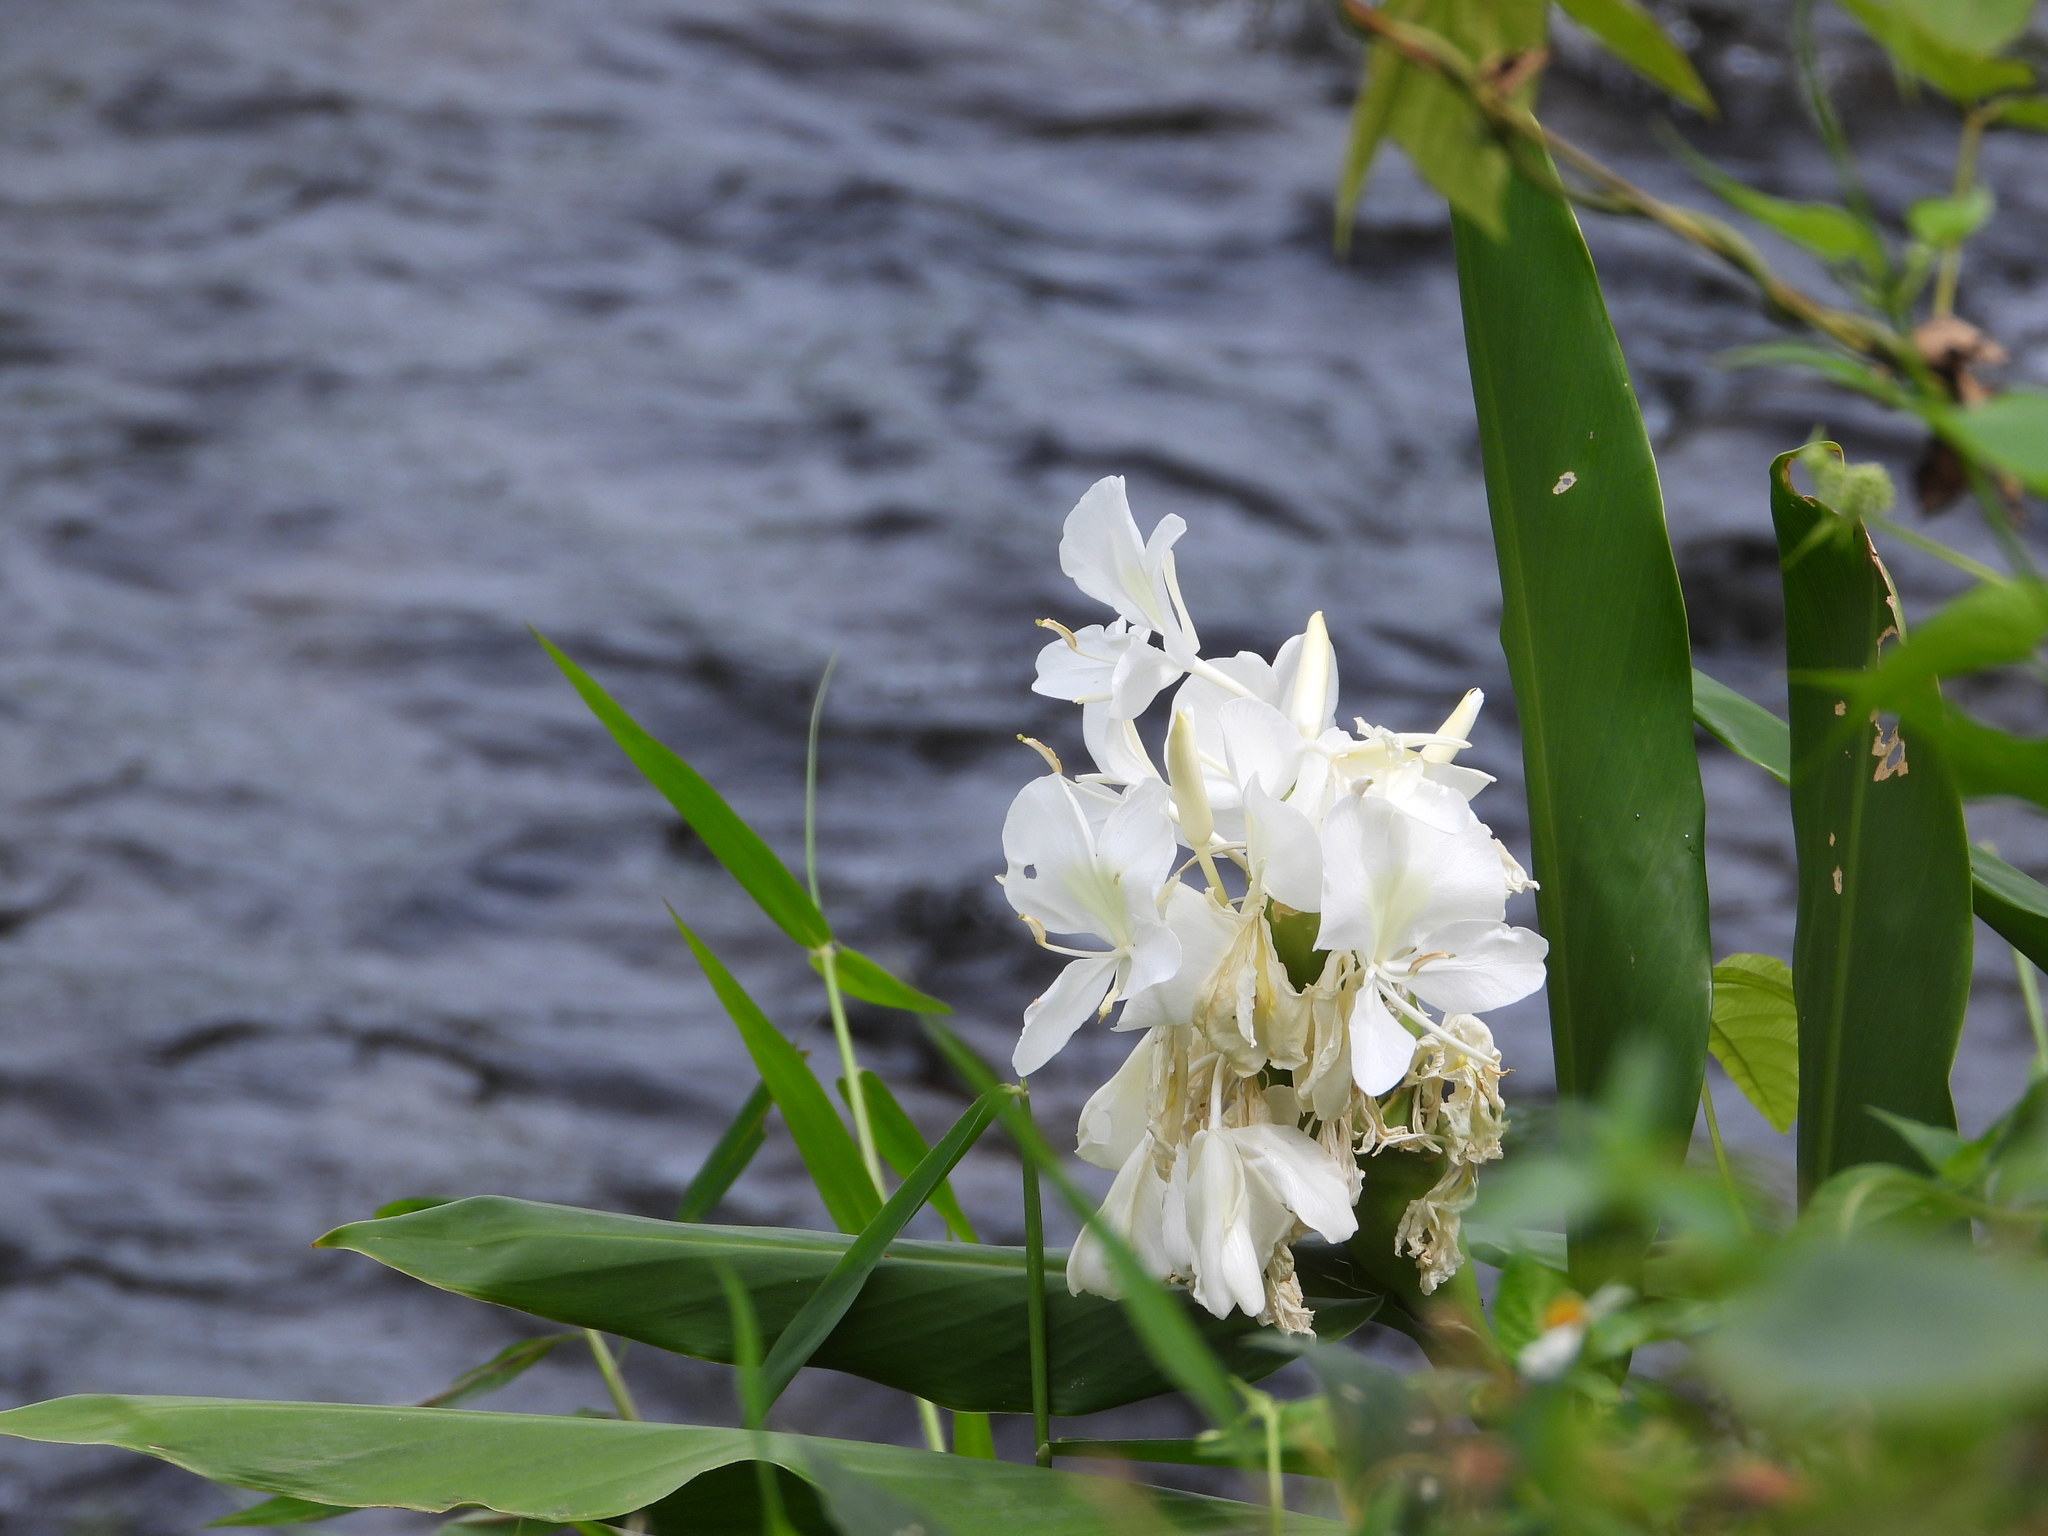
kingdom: Plantae
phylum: Tracheophyta
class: Liliopsida
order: Zingiberales
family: Zingiberaceae
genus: Hedychium
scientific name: Hedychium coronarium
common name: White garland-lily
